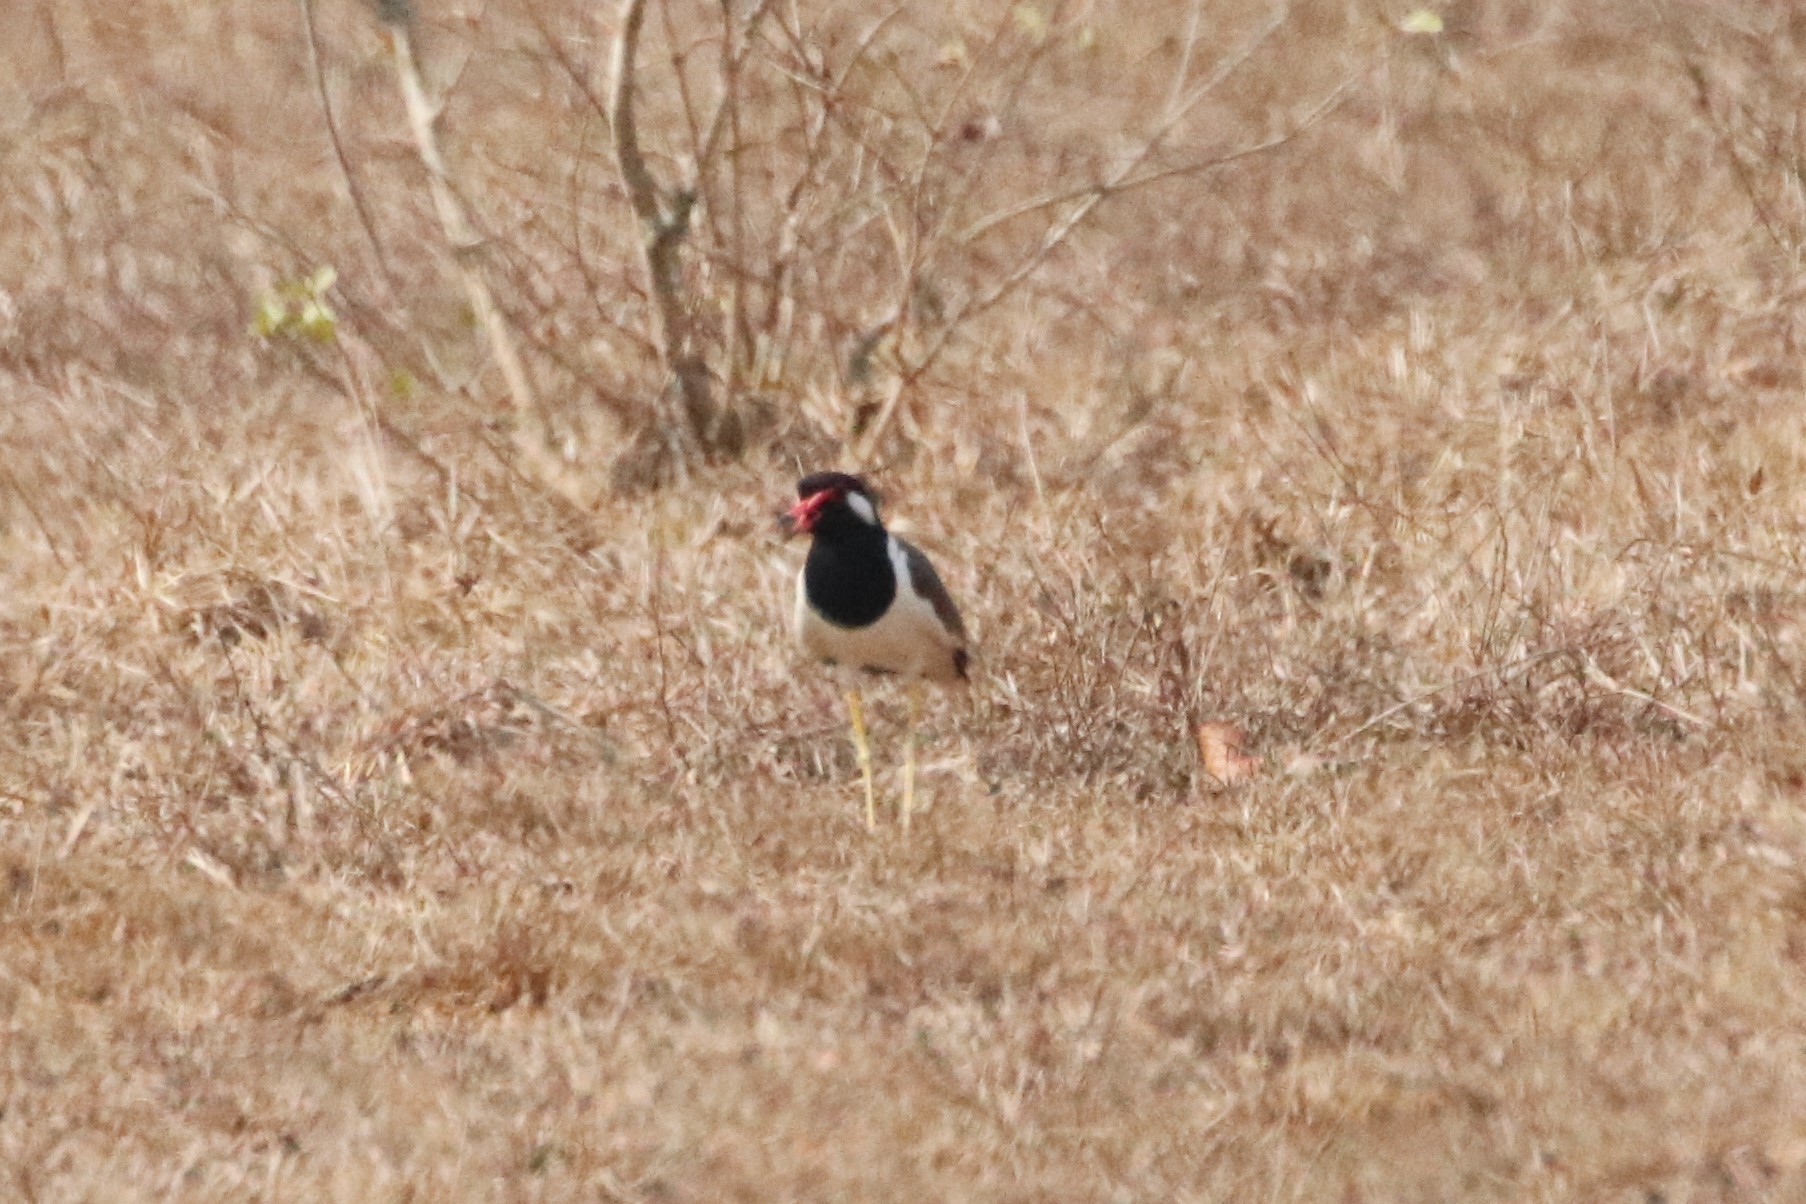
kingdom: Animalia
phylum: Chordata
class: Aves
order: Charadriiformes
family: Charadriidae
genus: Vanellus
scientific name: Vanellus indicus
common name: Red-wattled lapwing
